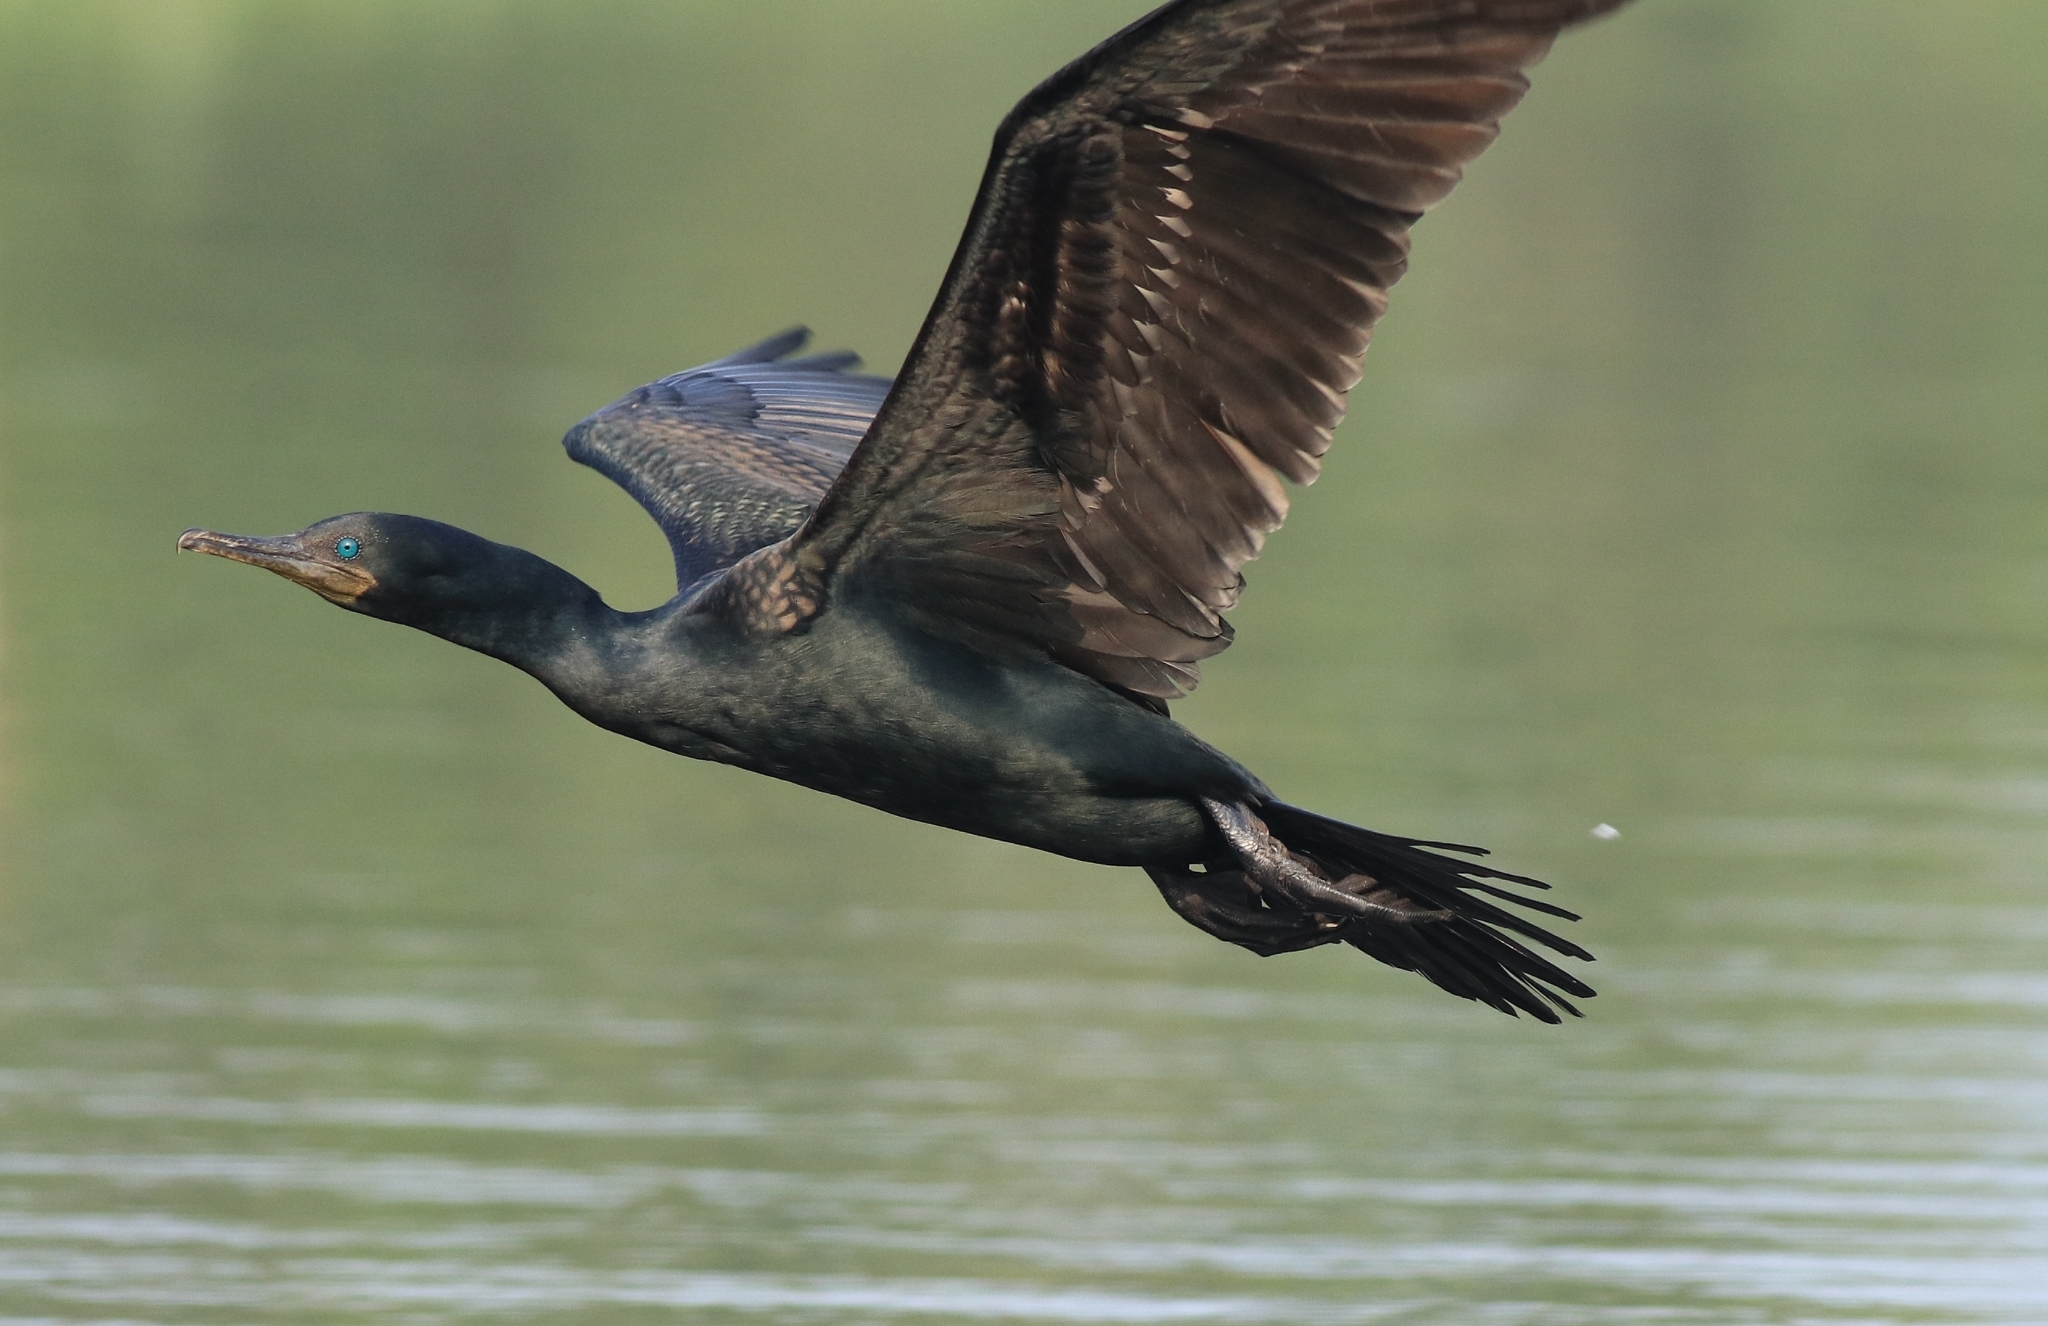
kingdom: Animalia
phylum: Chordata
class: Aves
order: Suliformes
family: Phalacrocoracidae
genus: Phalacrocorax
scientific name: Phalacrocorax fuscicollis
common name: Indian cormorant
